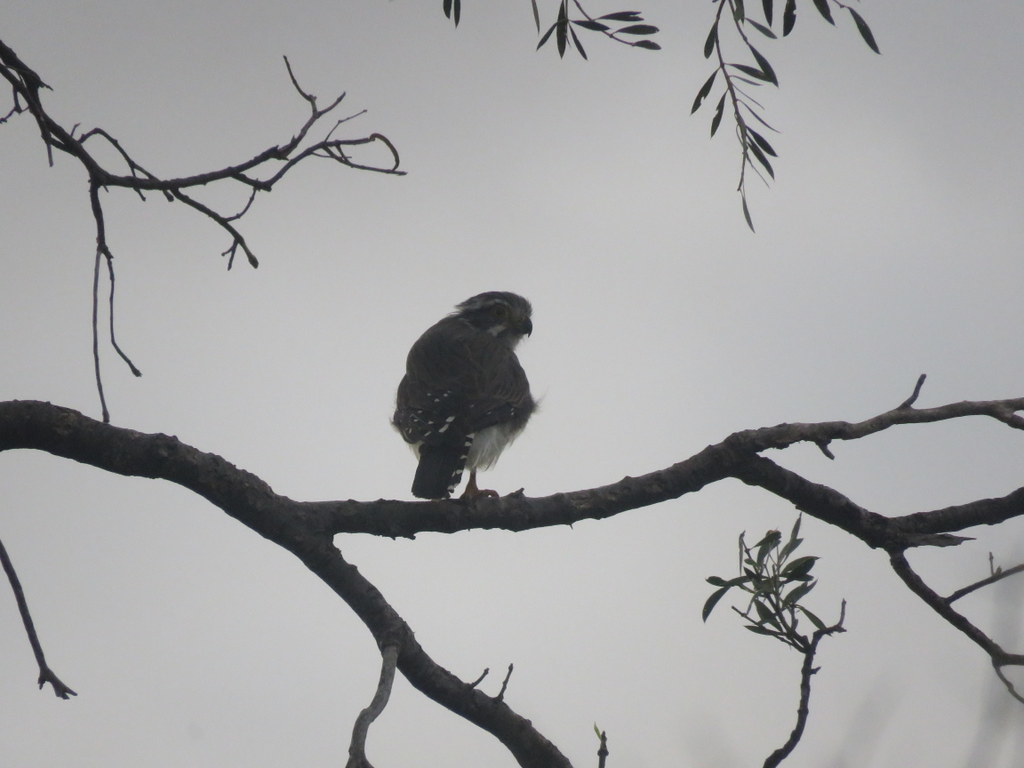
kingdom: Animalia
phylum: Chordata
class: Aves
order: Falconiformes
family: Falconidae
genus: Spiziapteryx
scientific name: Spiziapteryx circumcincta
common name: Spot-winged falconet
